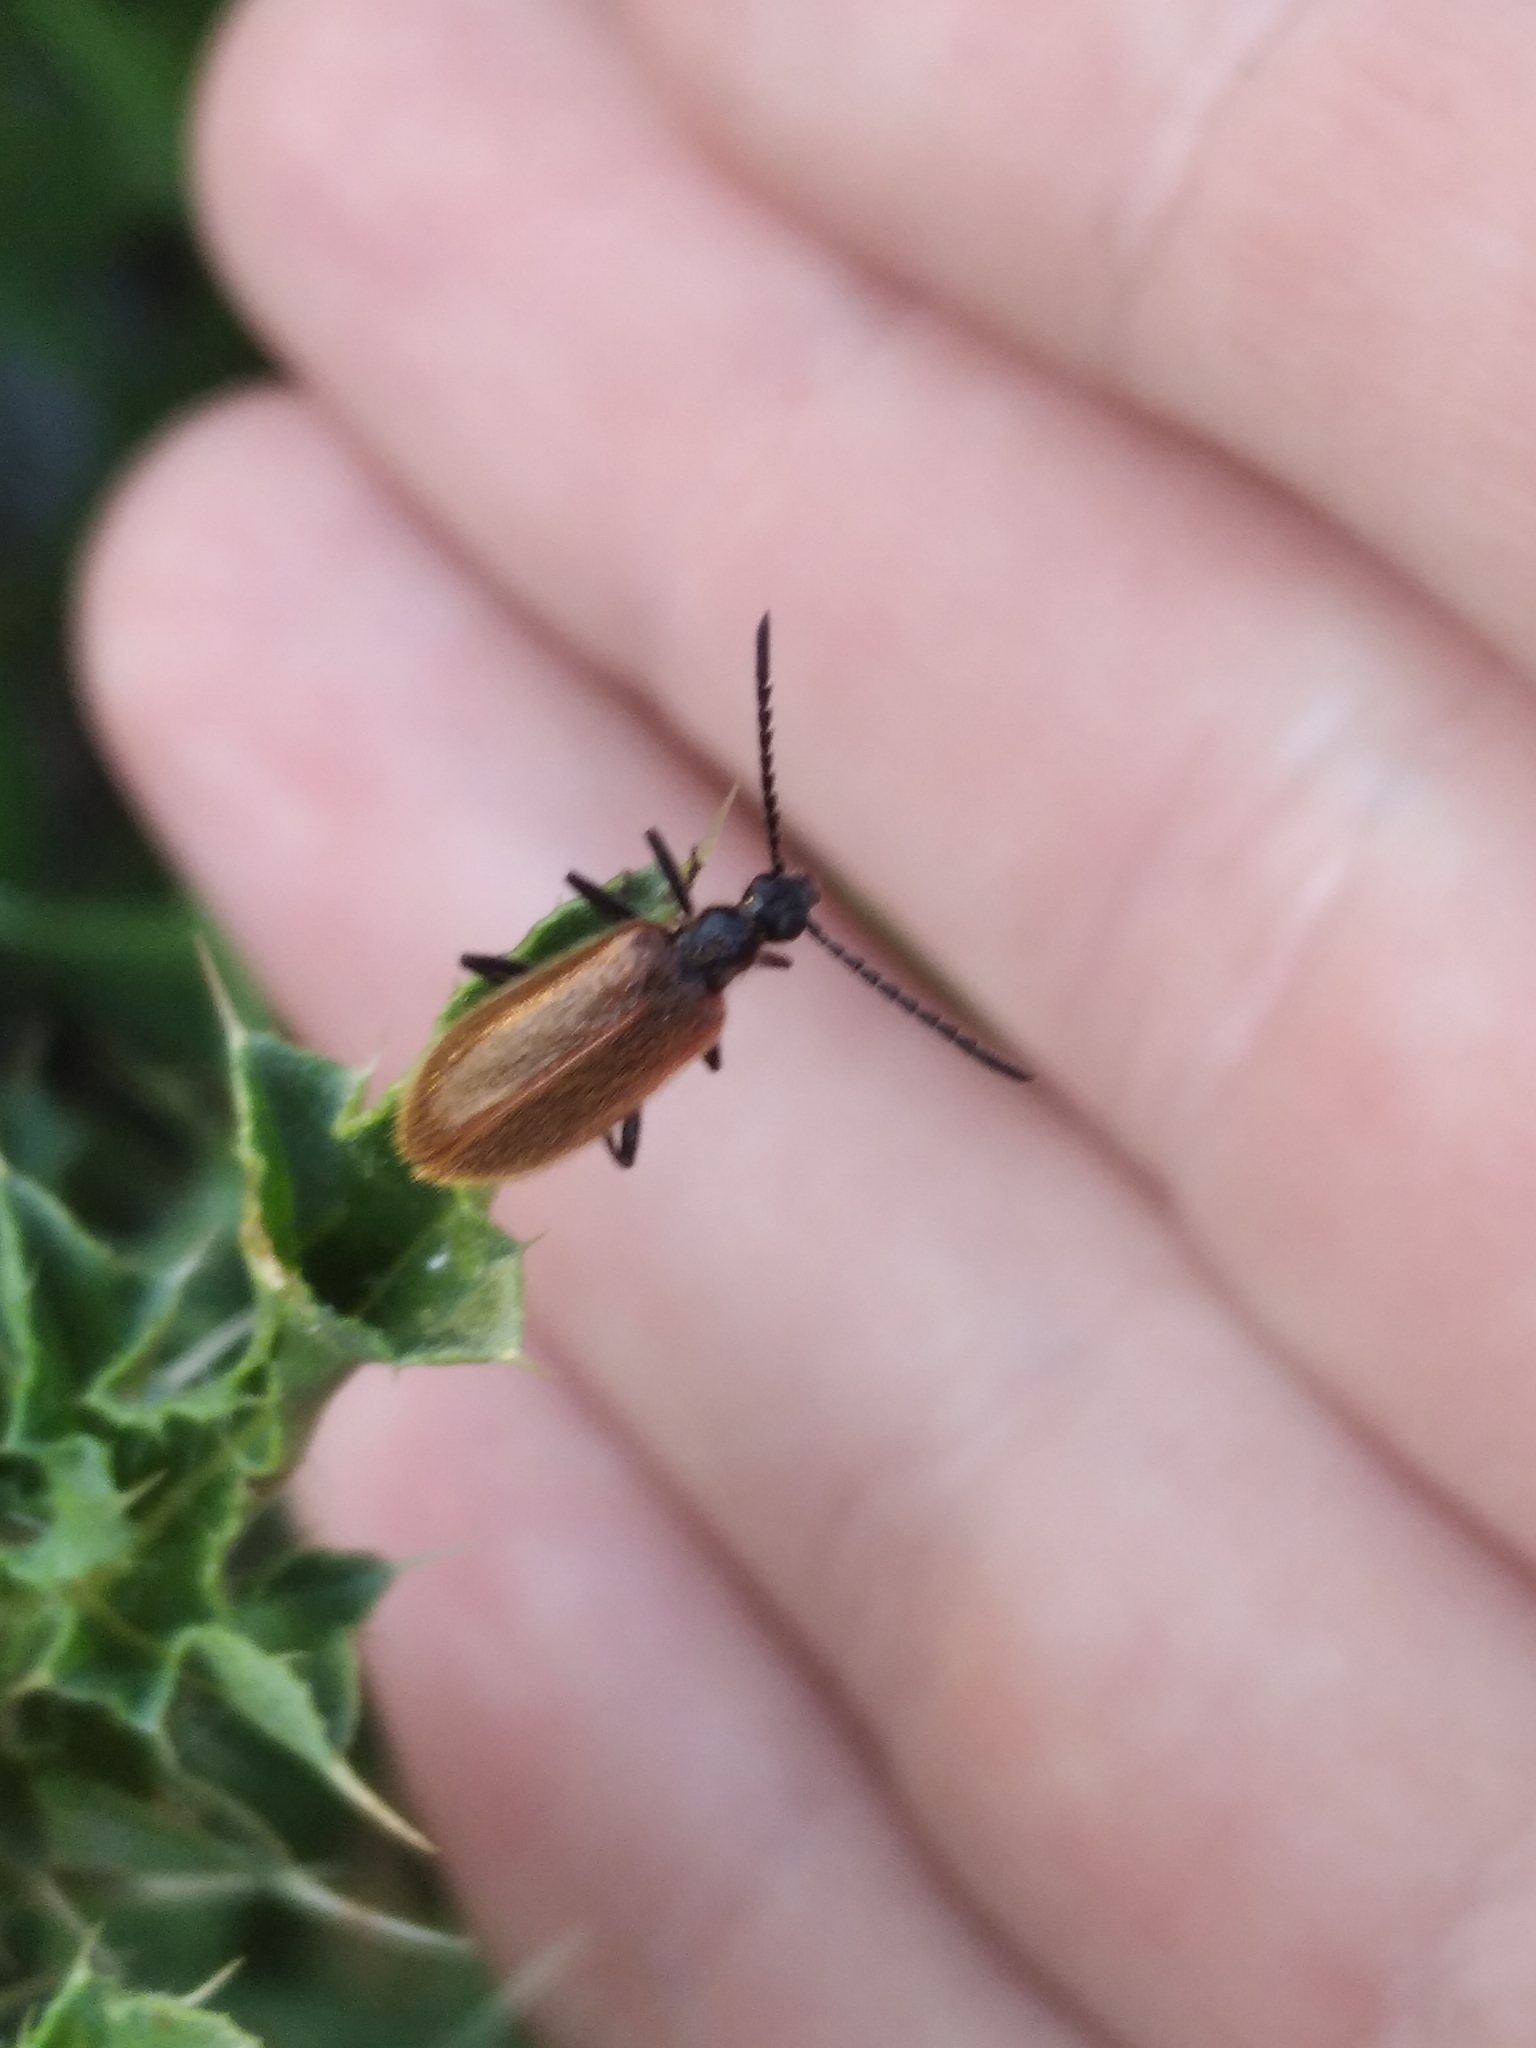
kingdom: Animalia
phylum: Arthropoda
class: Insecta
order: Coleoptera
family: Tenebrionidae
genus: Lagria
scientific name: Lagria hirta
